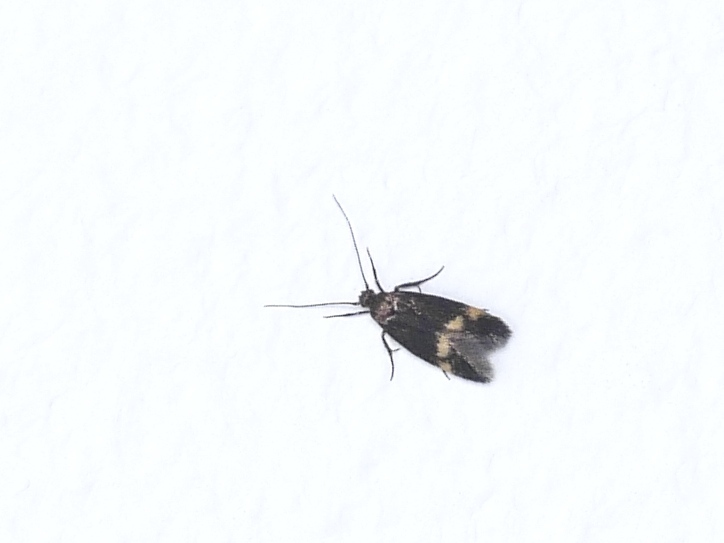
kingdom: Animalia
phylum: Arthropoda
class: Insecta
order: Lepidoptera
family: Oecophoridae
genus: Borkhausenia
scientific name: Borkhausenia minutella
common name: Thatch tubic
